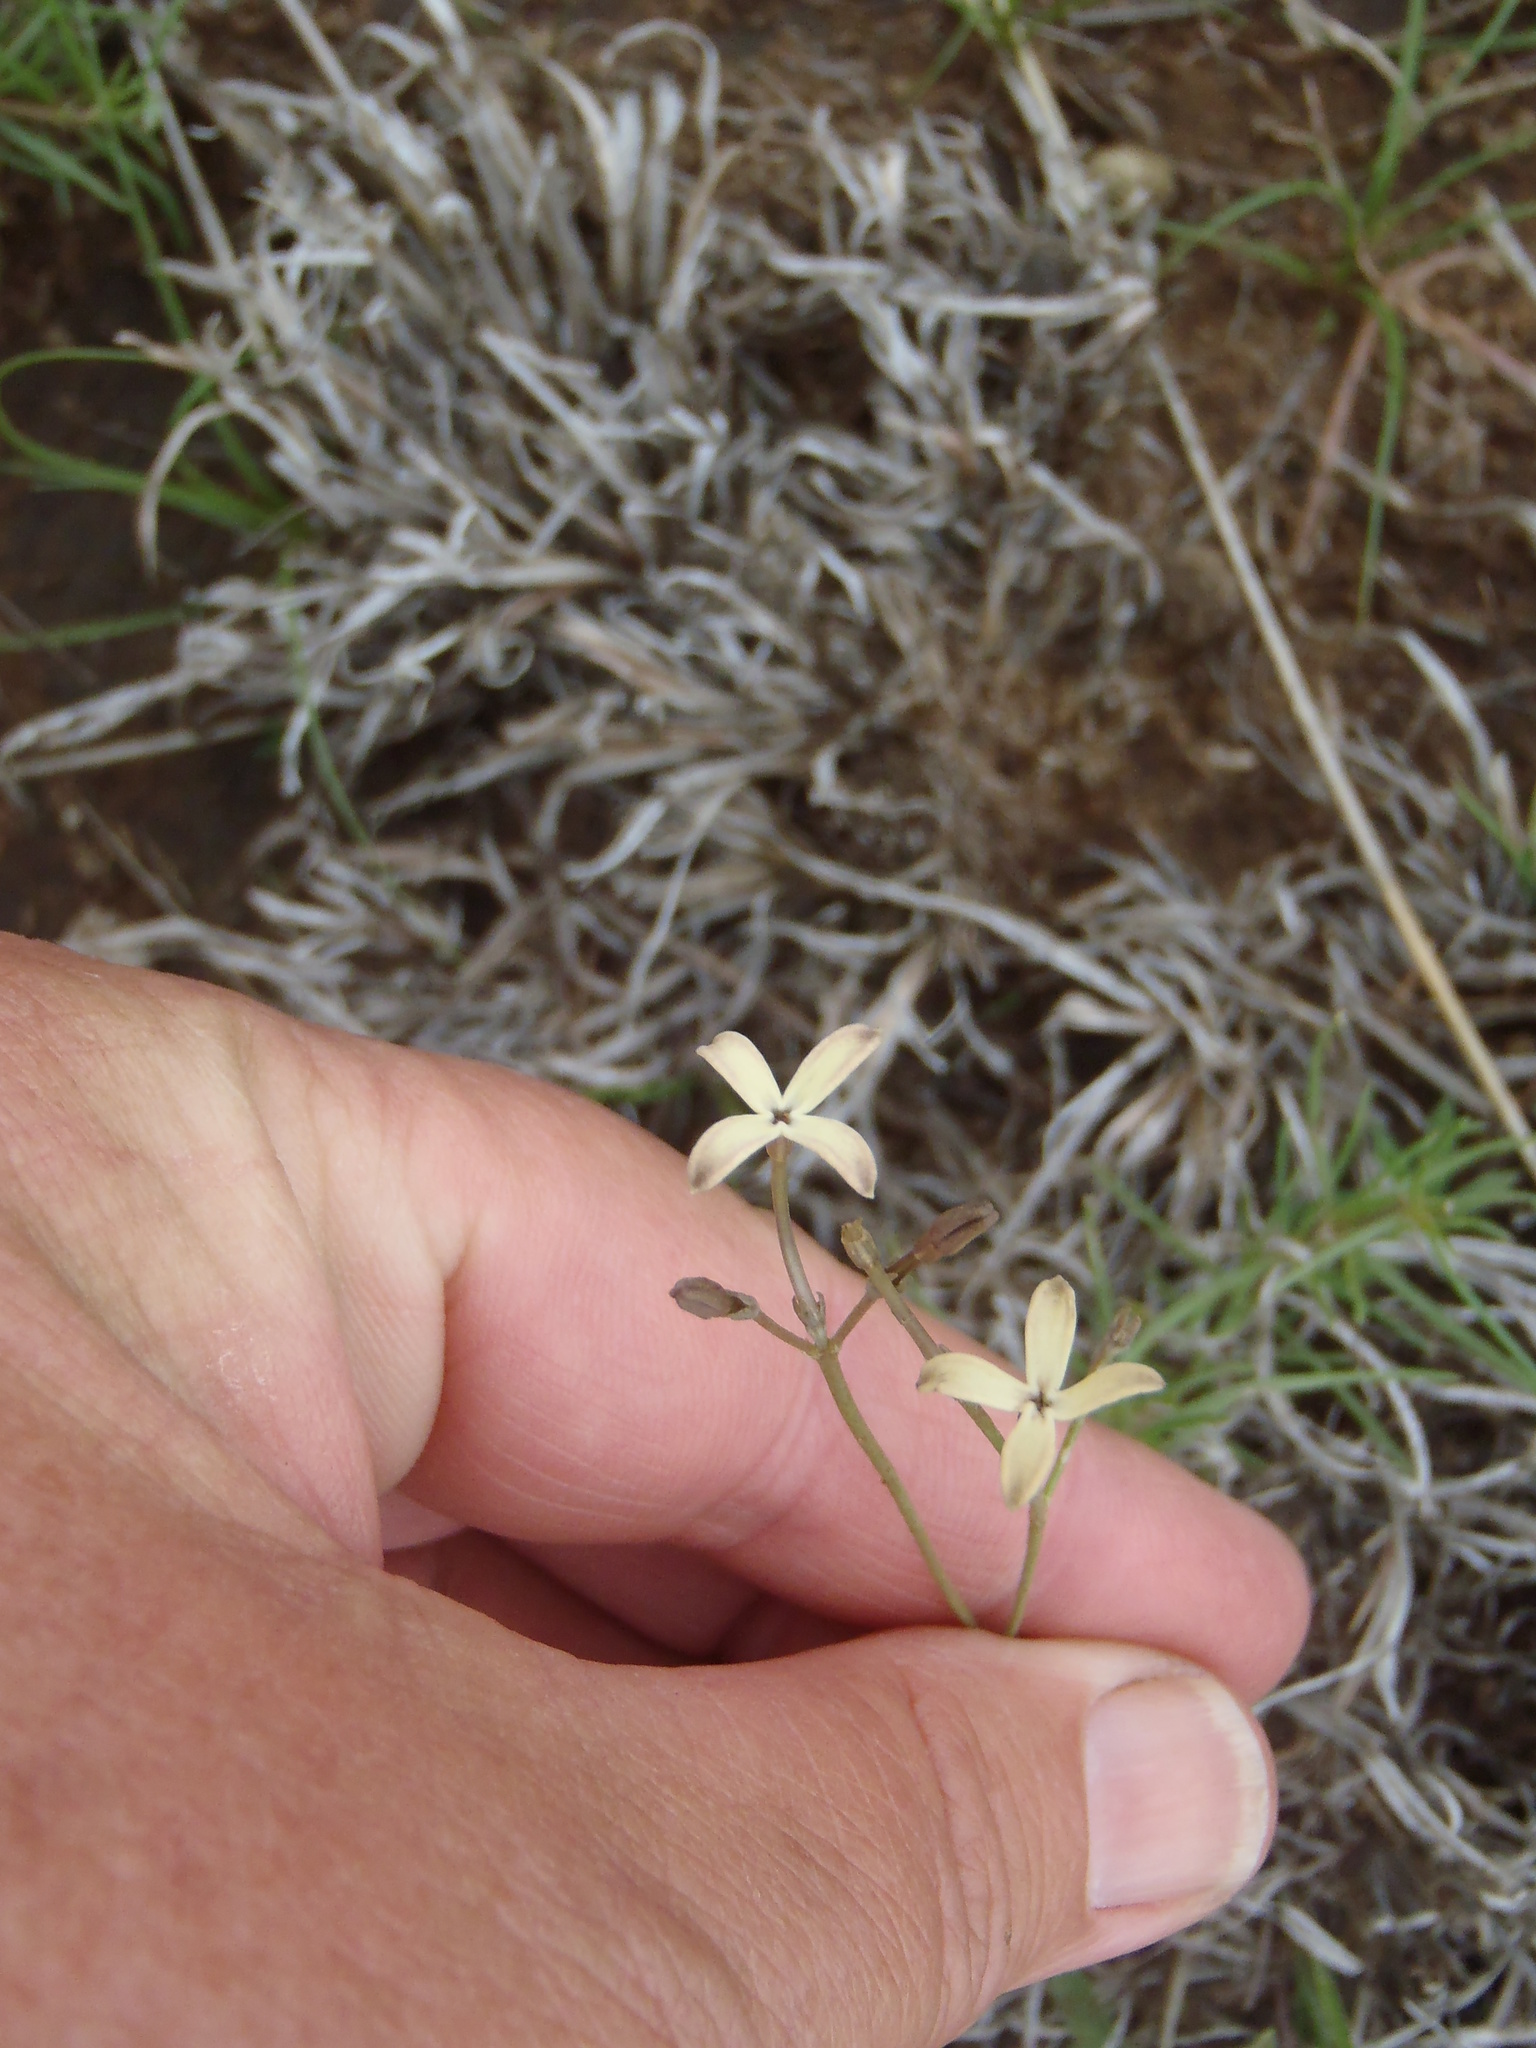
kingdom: Plantae
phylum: Tracheophyta
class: Magnoliopsida
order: Gentianales
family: Rubiaceae
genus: Kohautia
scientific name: Kohautia amatymbica
